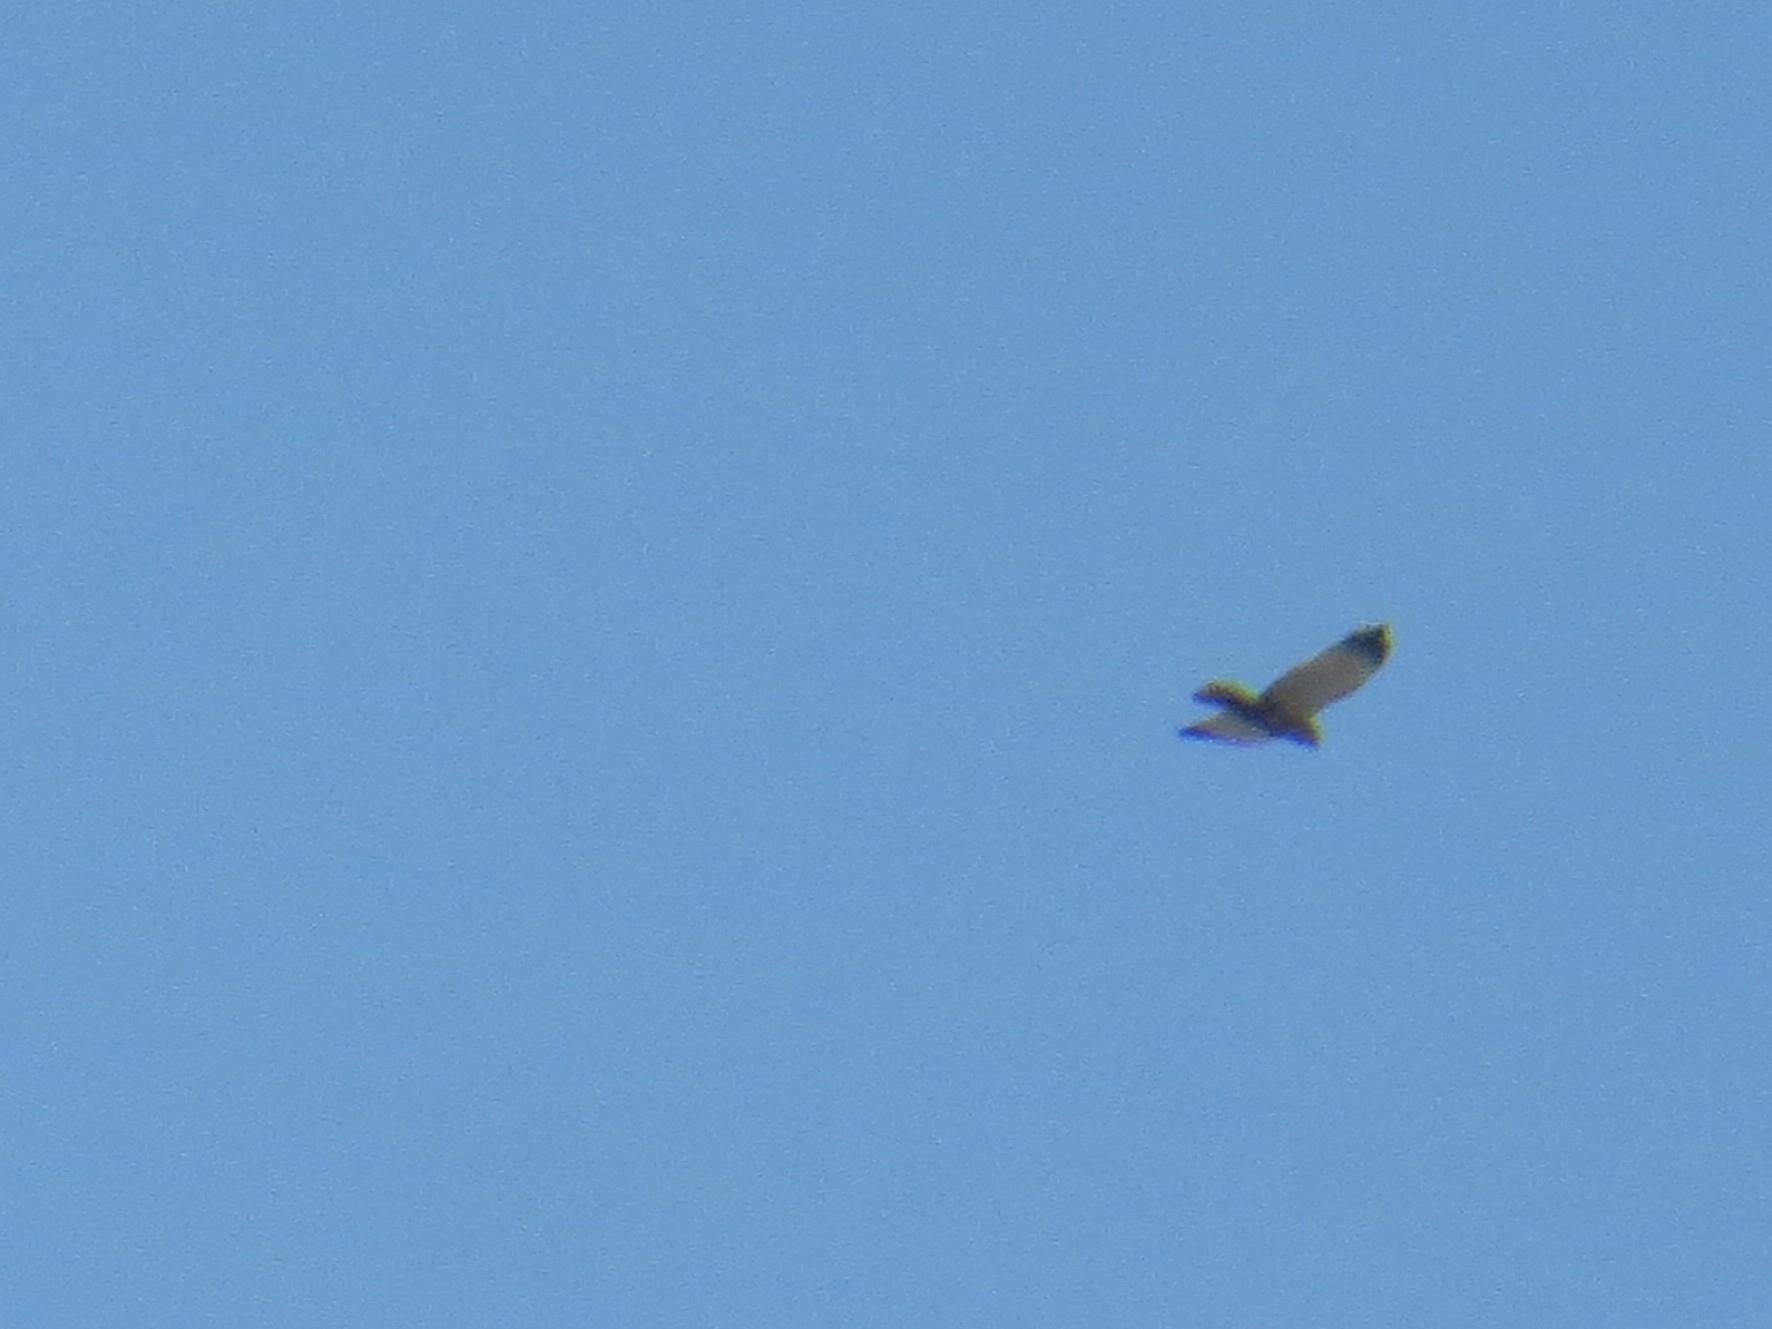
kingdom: Animalia
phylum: Chordata
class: Aves
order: Accipitriformes
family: Accipitridae
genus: Circus
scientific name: Circus aeruginosus
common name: Western marsh harrier
